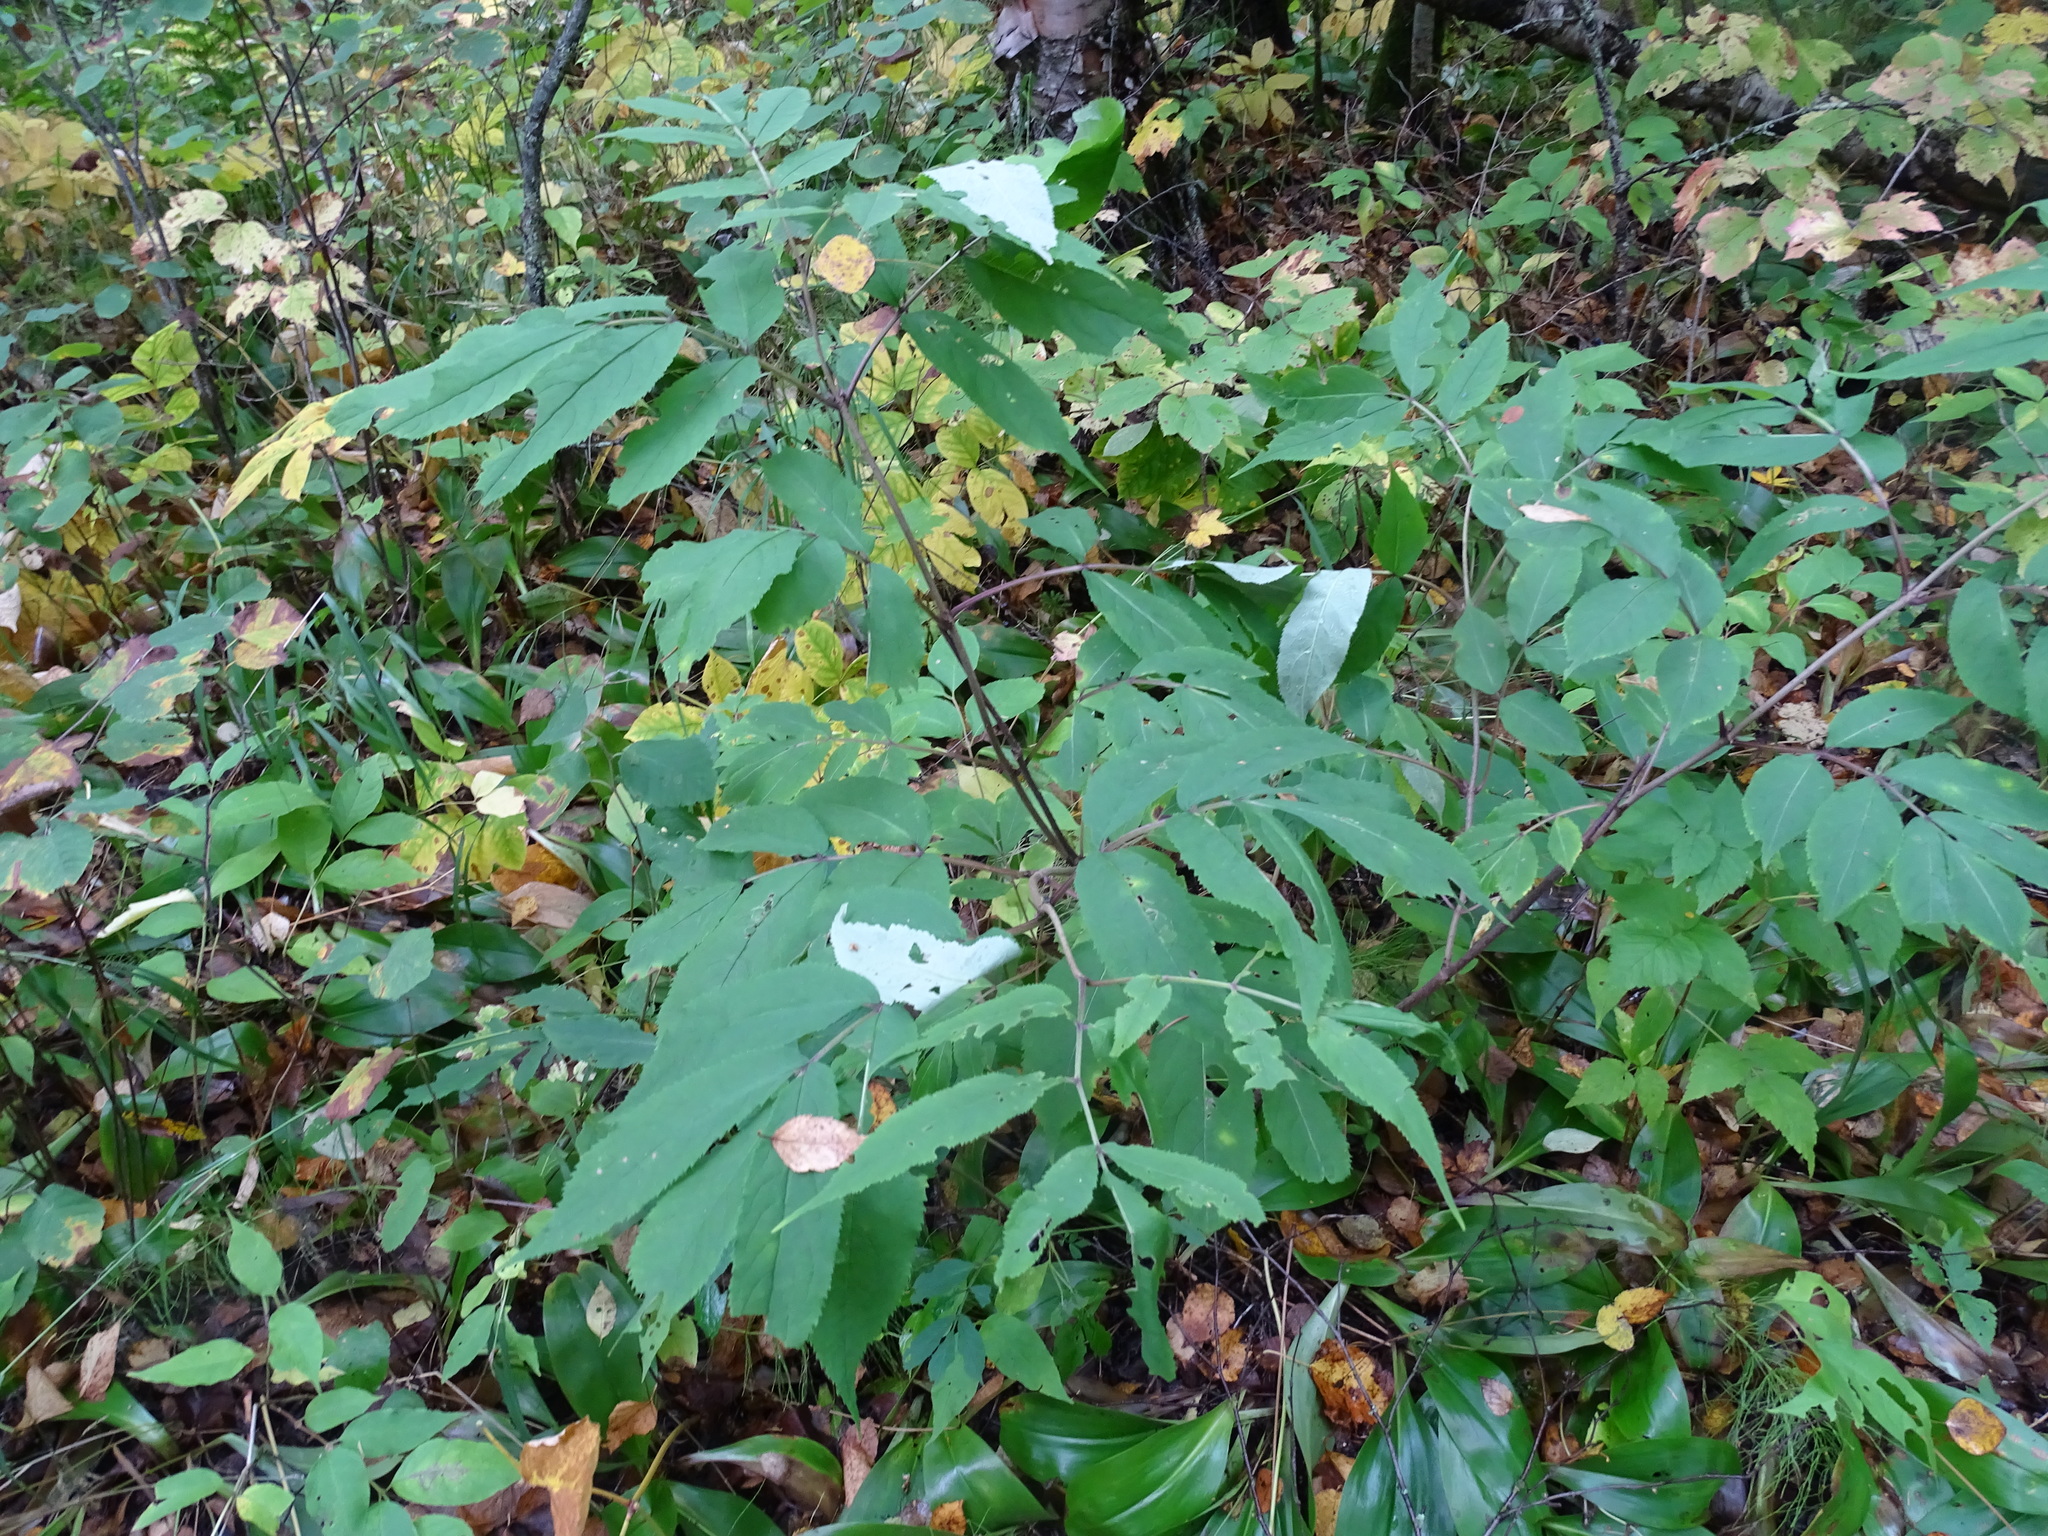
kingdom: Plantae
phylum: Tracheophyta
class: Magnoliopsida
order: Dipsacales
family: Viburnaceae
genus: Sambucus
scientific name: Sambucus racemosa
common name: Red-berried elder
